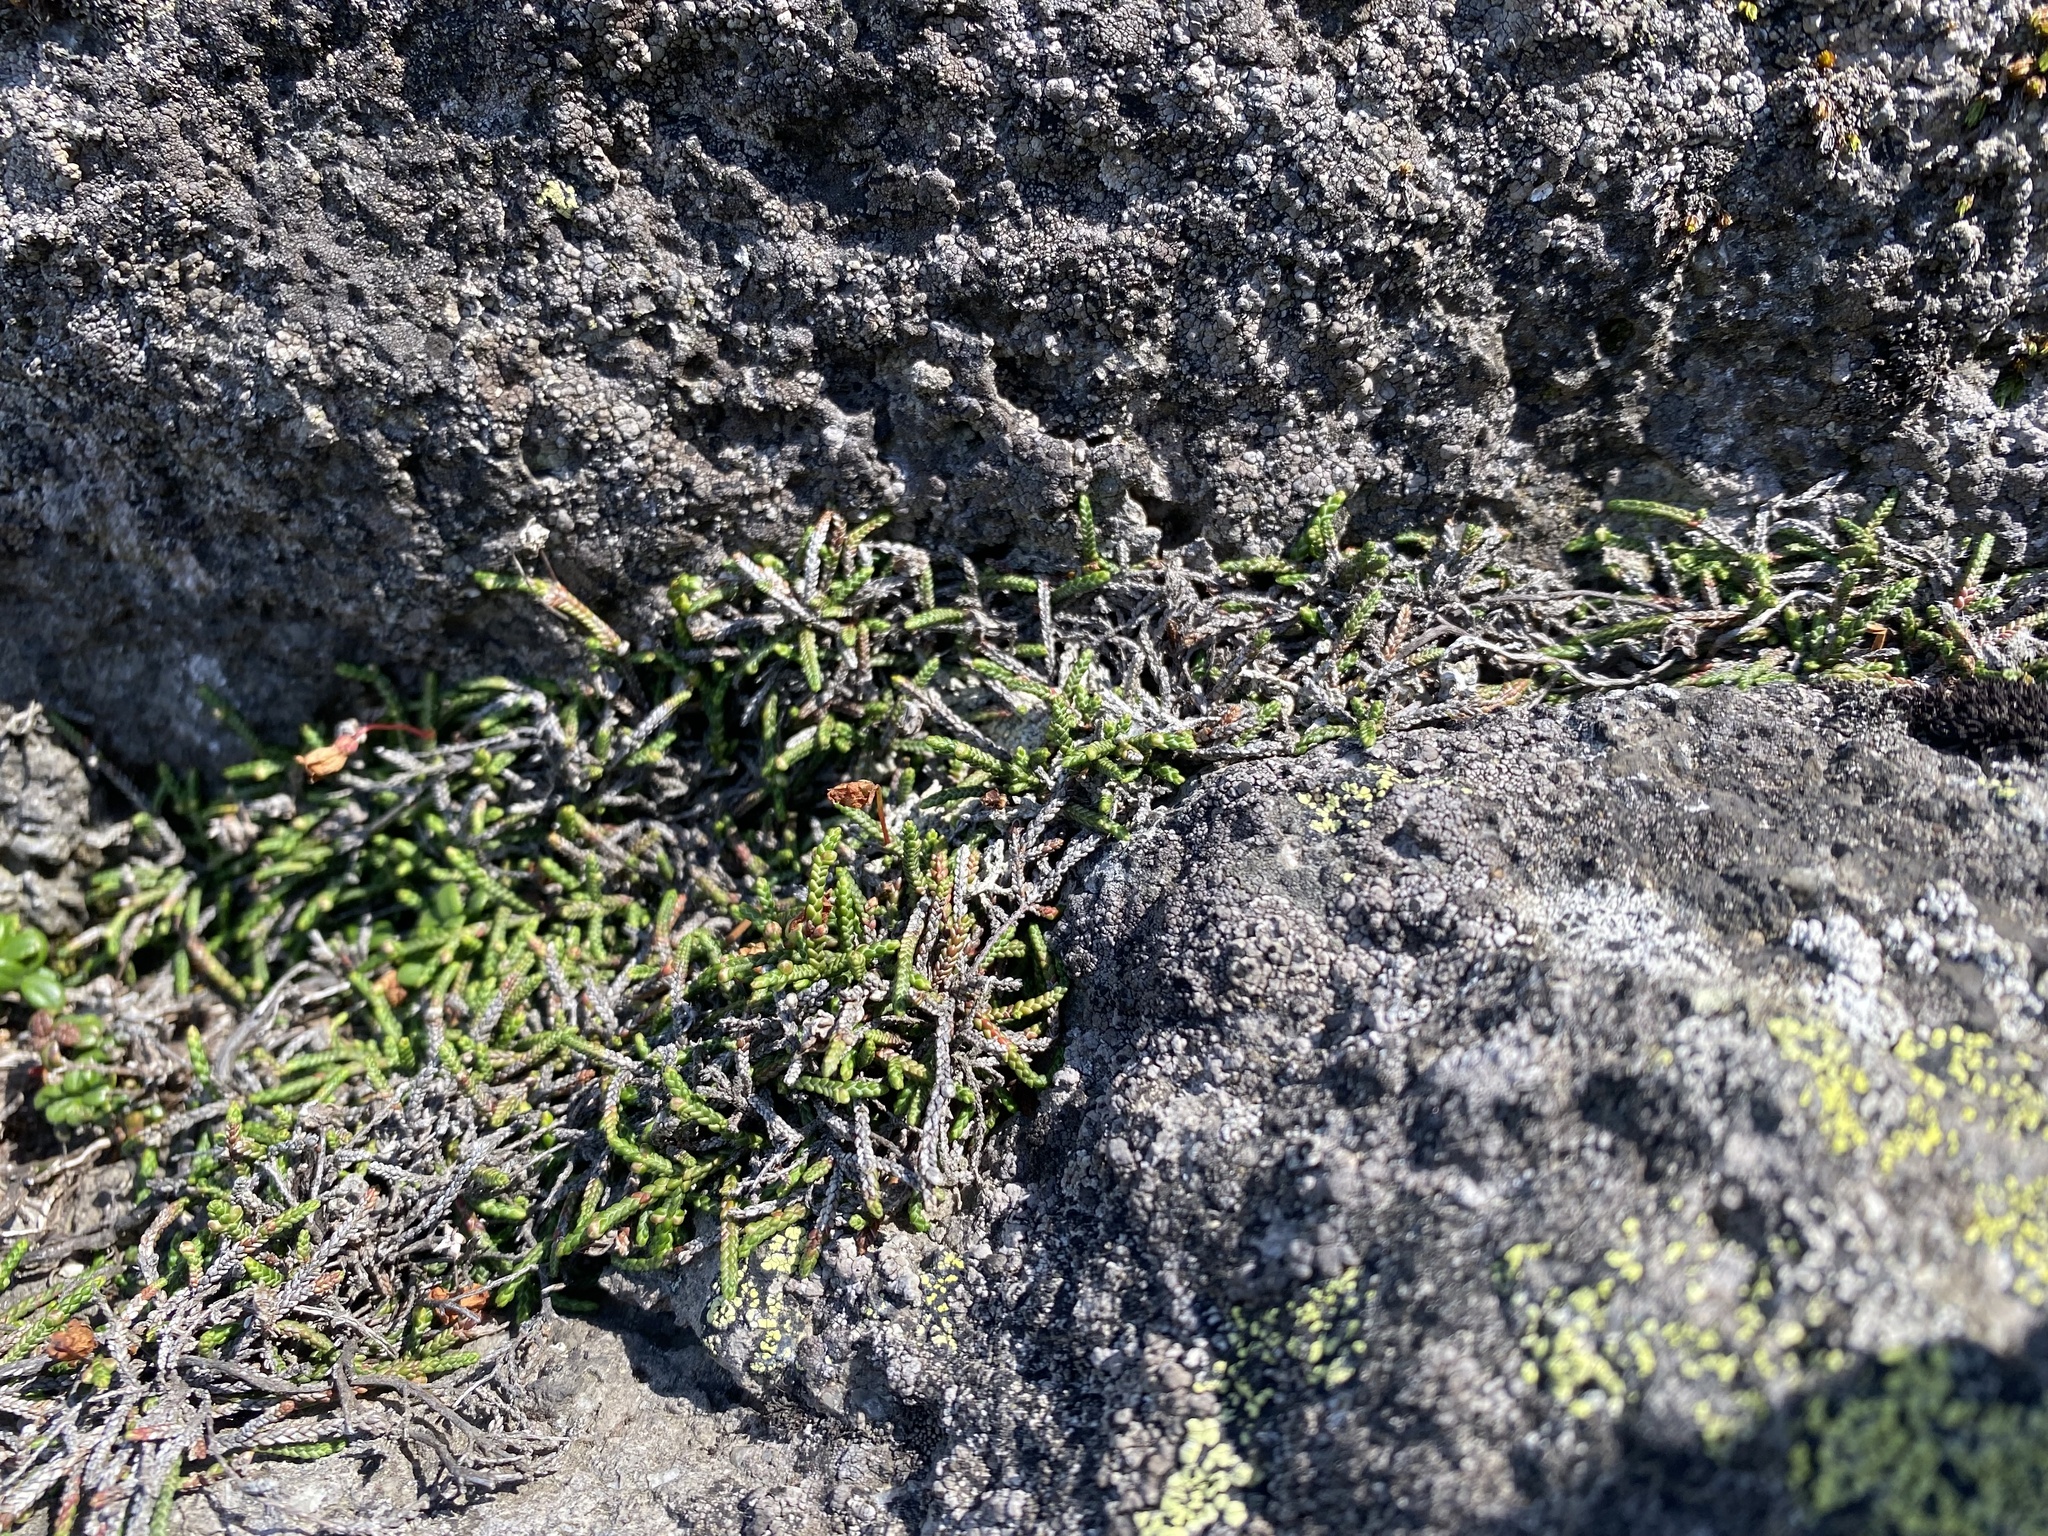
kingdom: Plantae
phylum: Tracheophyta
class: Magnoliopsida
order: Ericales
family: Ericaceae
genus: Cassiope
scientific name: Cassiope lycopodioides
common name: Clubmoss mountain heather
